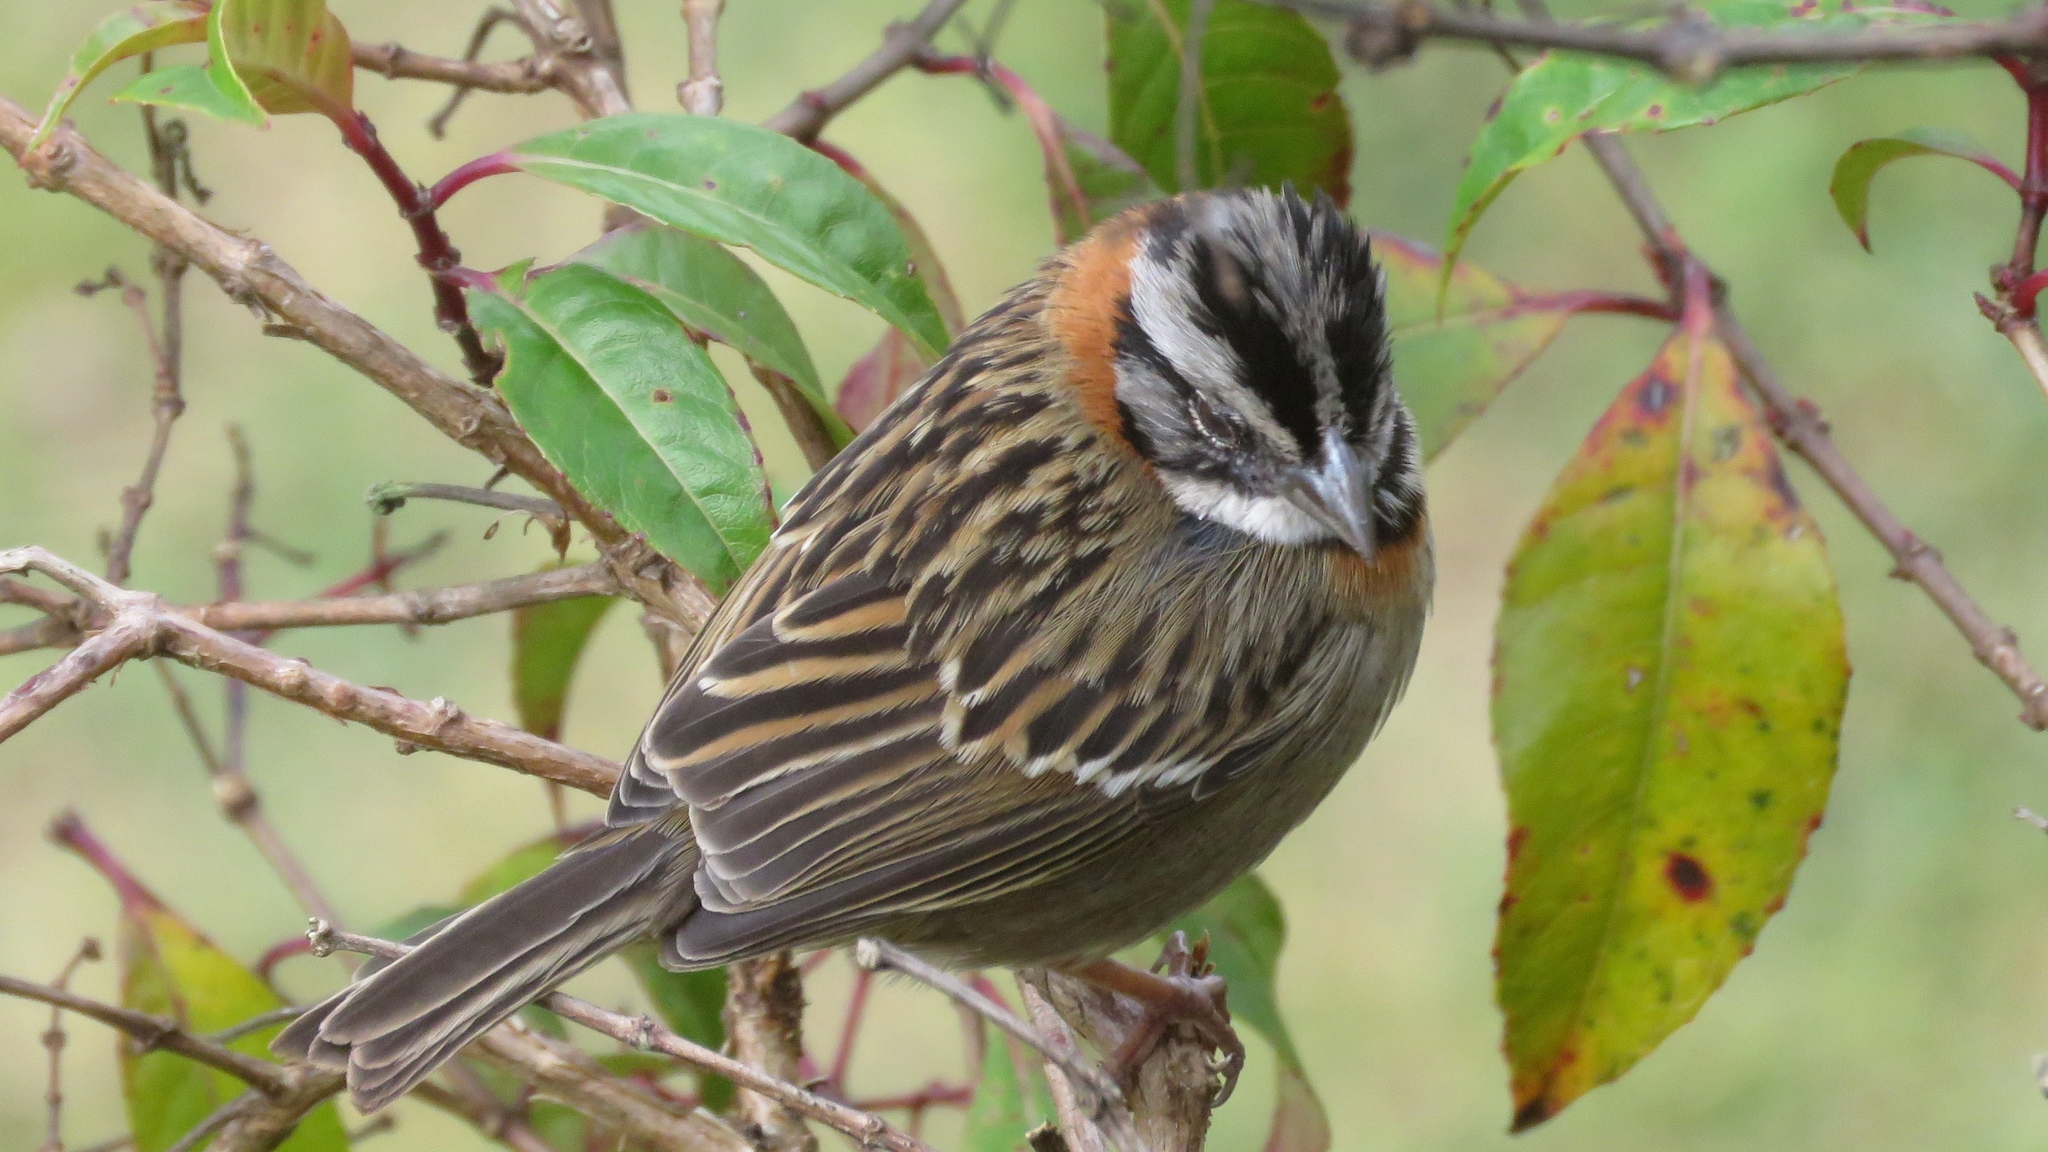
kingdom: Animalia
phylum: Chordata
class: Aves
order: Passeriformes
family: Passerellidae
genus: Zonotrichia
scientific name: Zonotrichia capensis
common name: Rufous-collared sparrow
